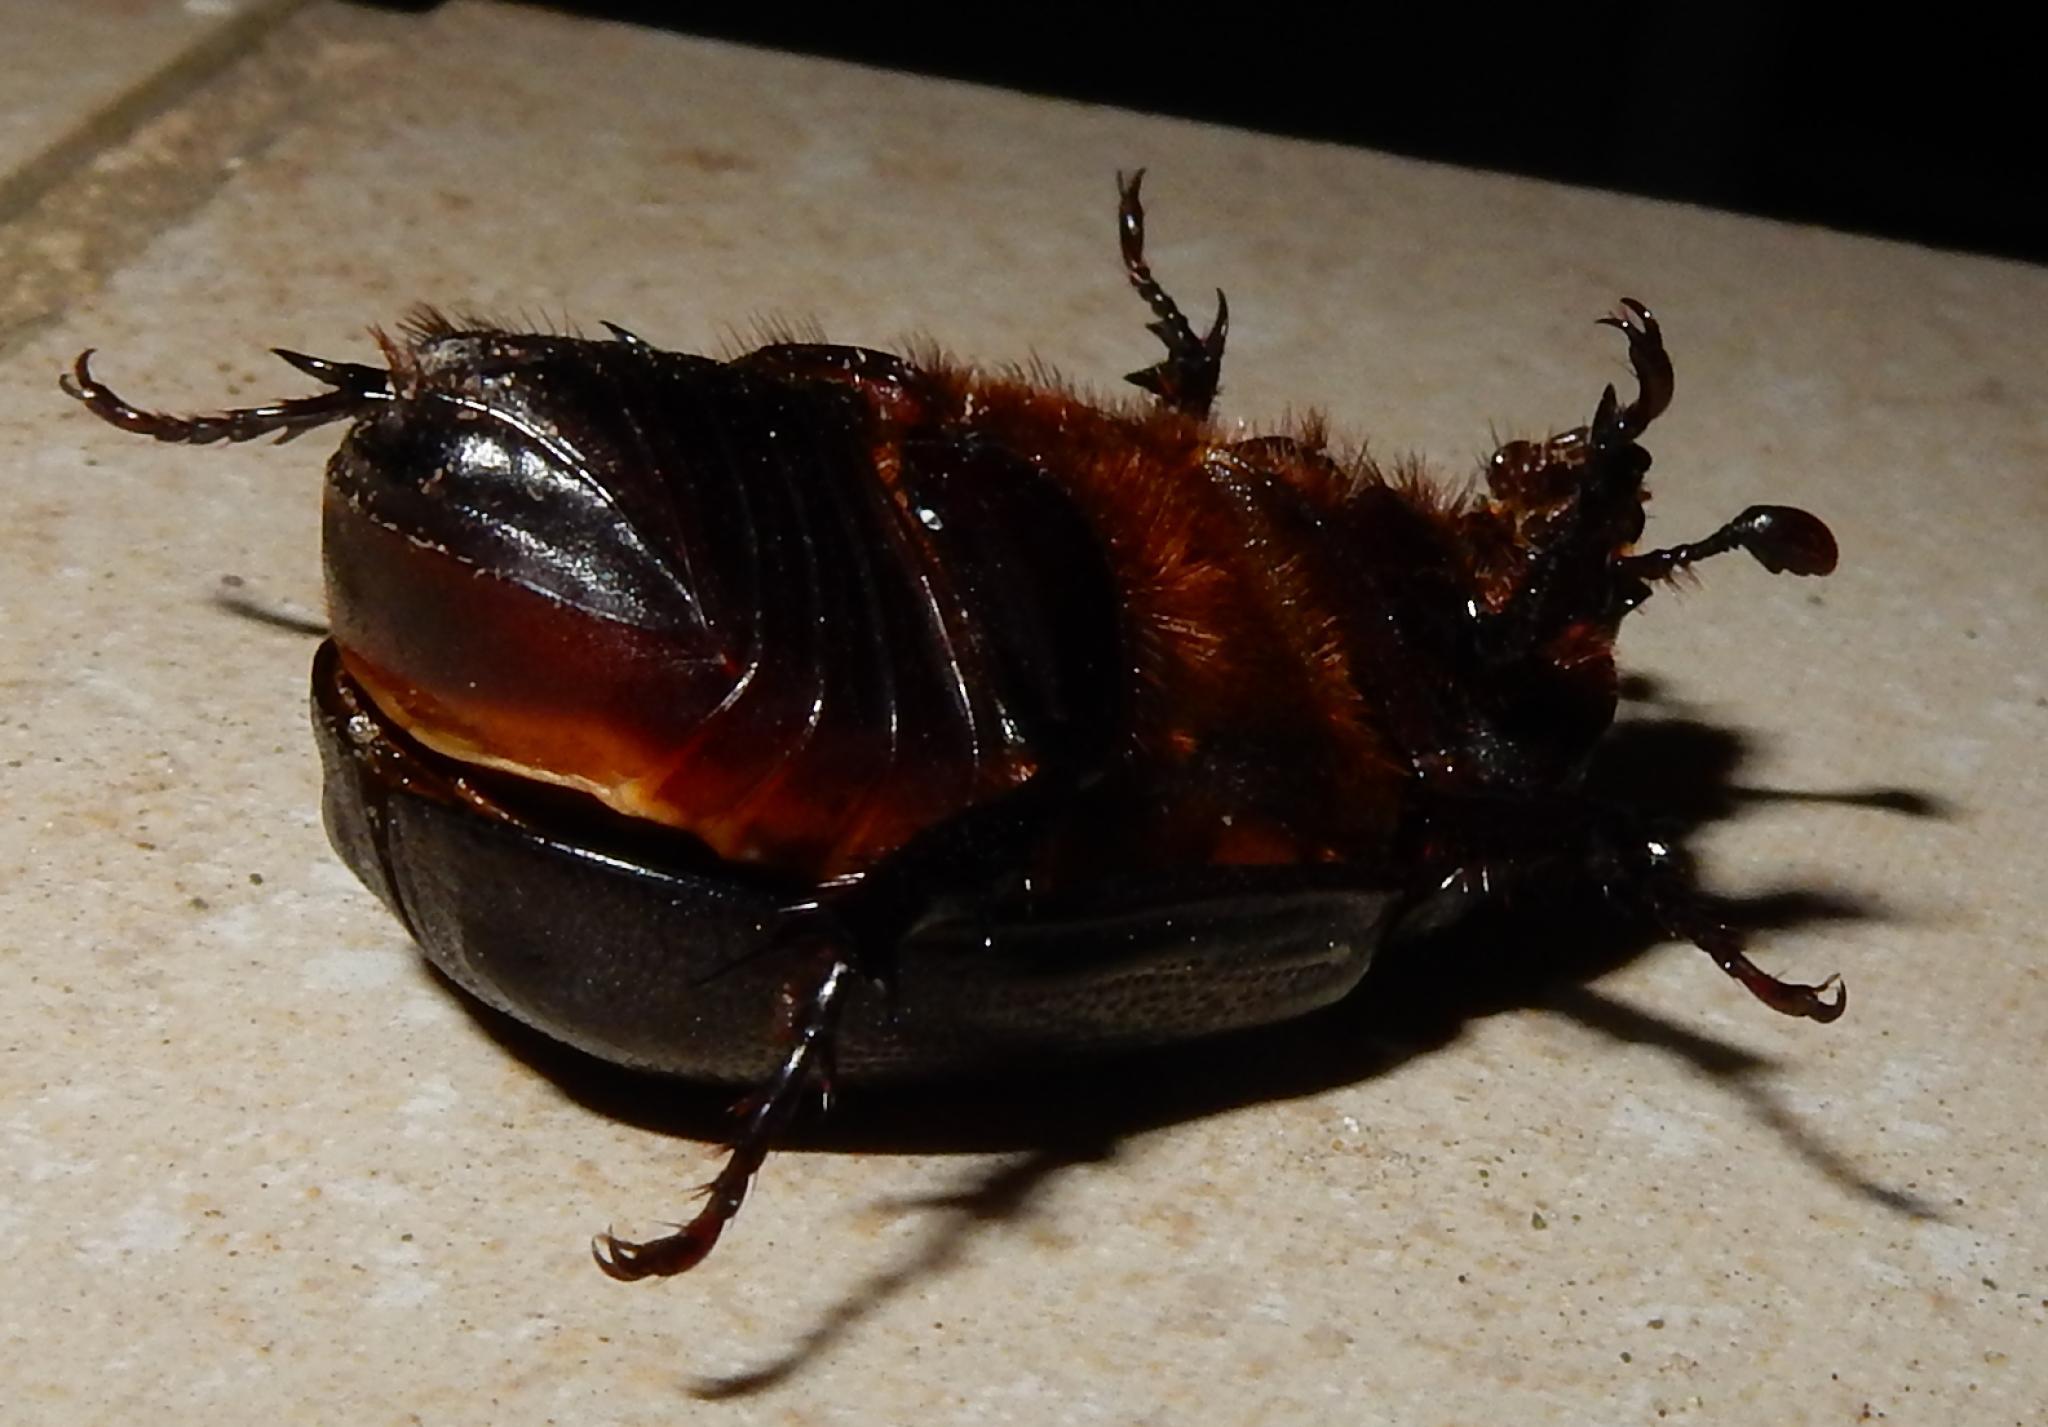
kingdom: Animalia
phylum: Arthropoda
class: Insecta
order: Coleoptera
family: Scarabaeidae
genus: Cyphonistes
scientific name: Cyphonistes vallatus
